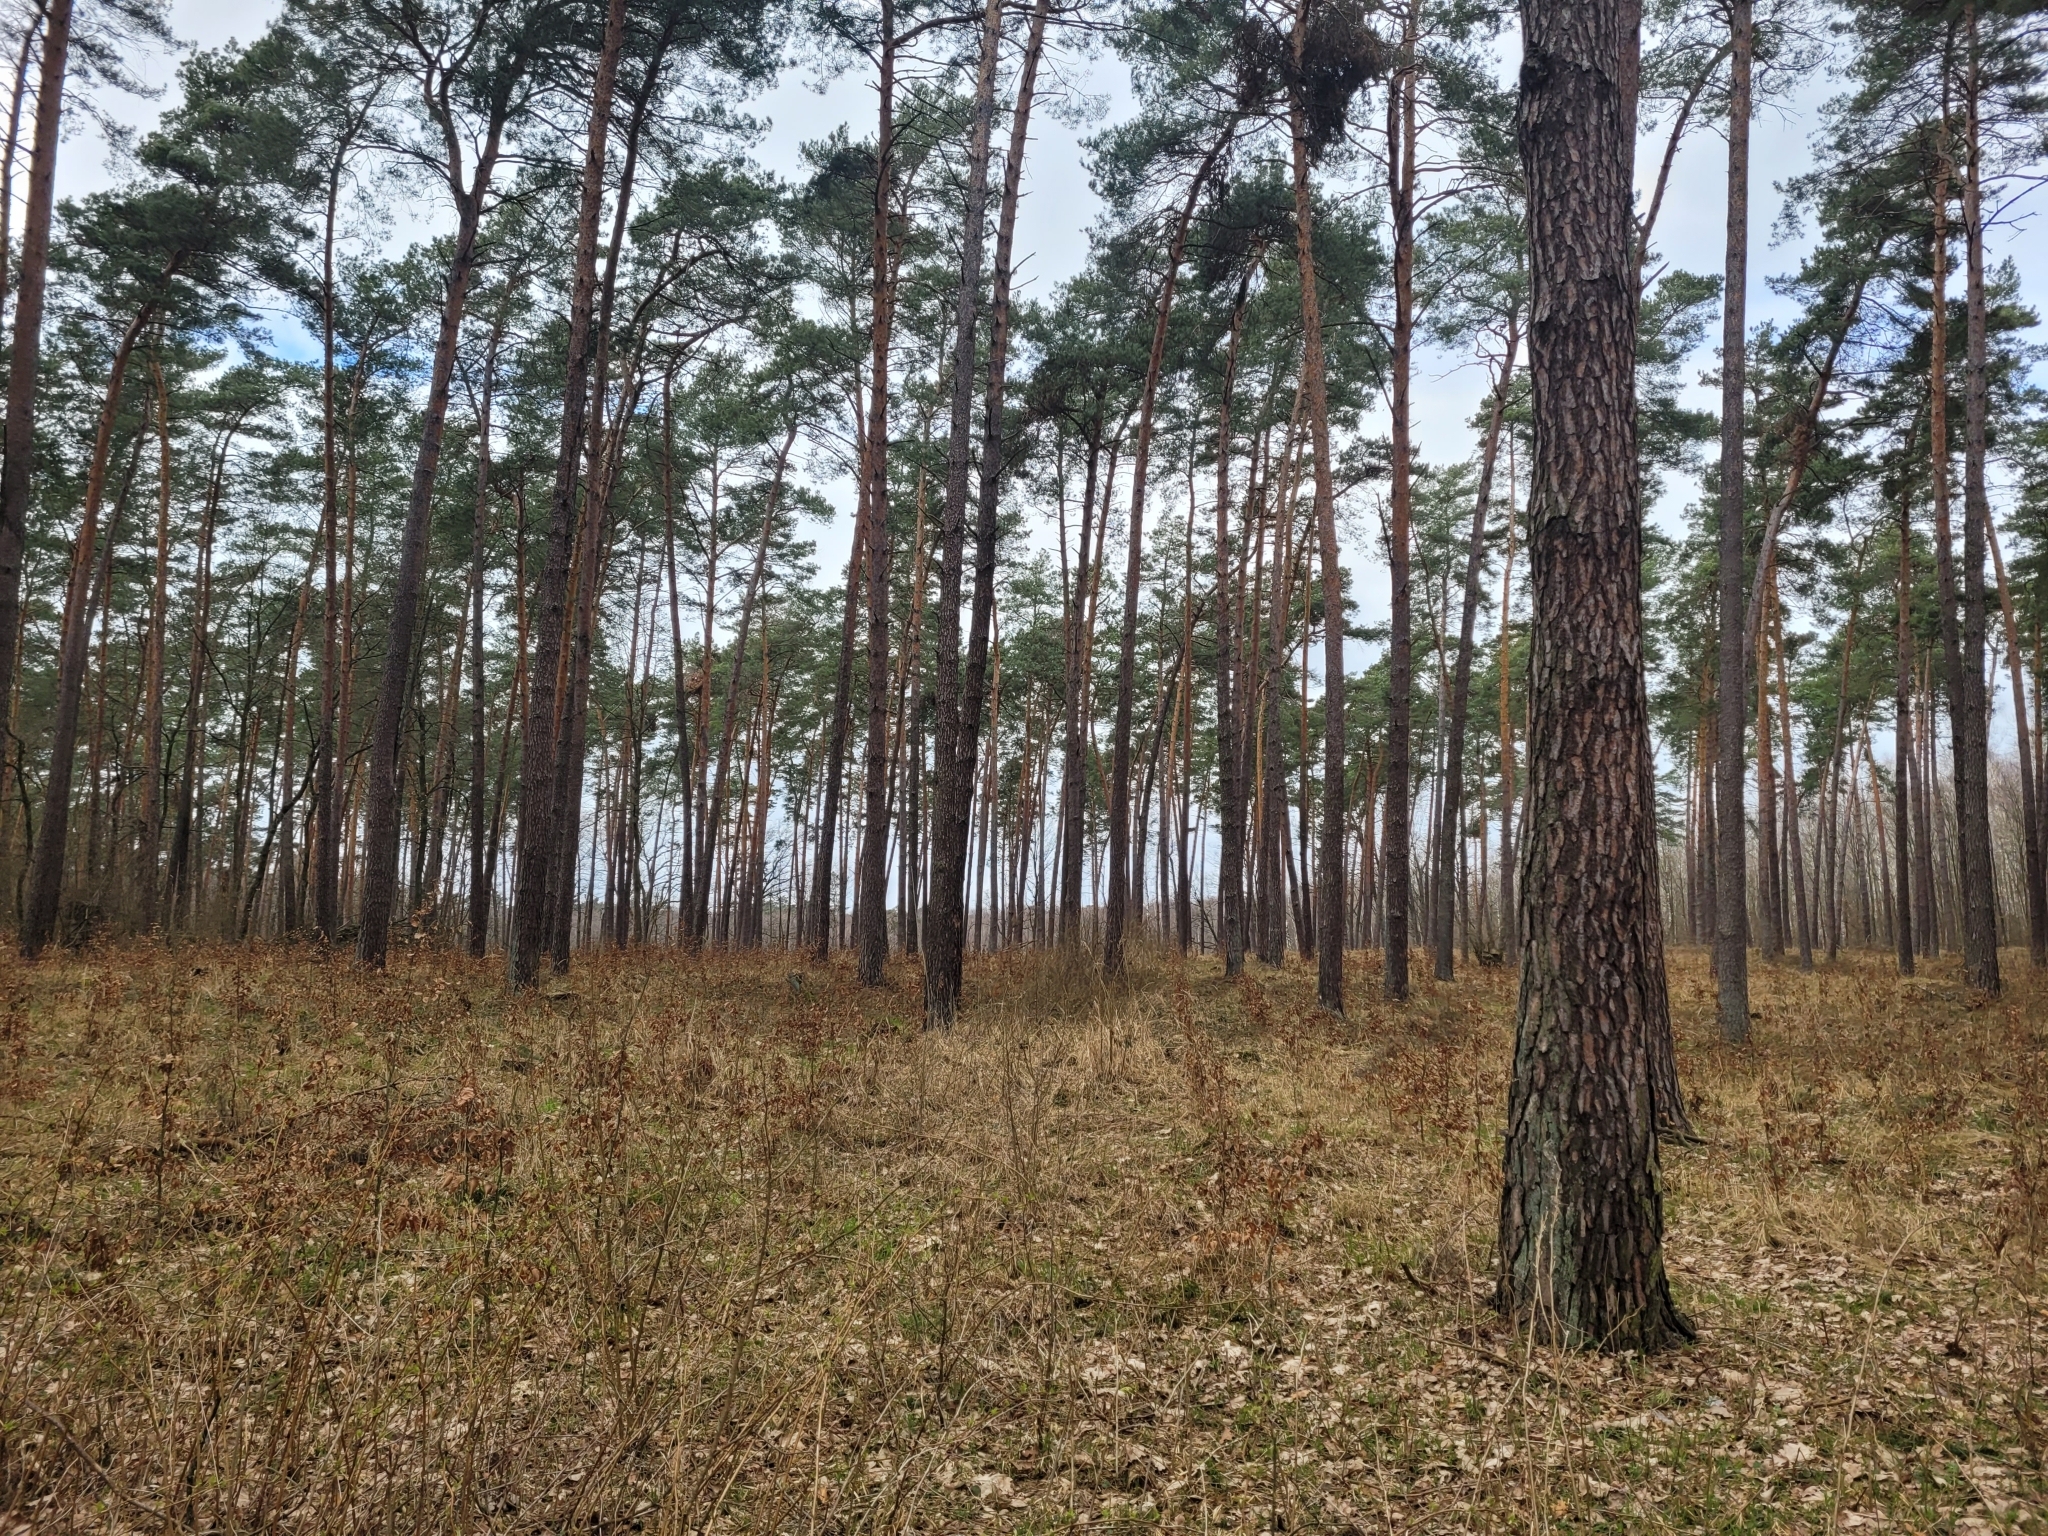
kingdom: Plantae
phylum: Tracheophyta
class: Pinopsida
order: Pinales
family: Pinaceae
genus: Pinus
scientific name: Pinus sylvestris
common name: Scots pine
